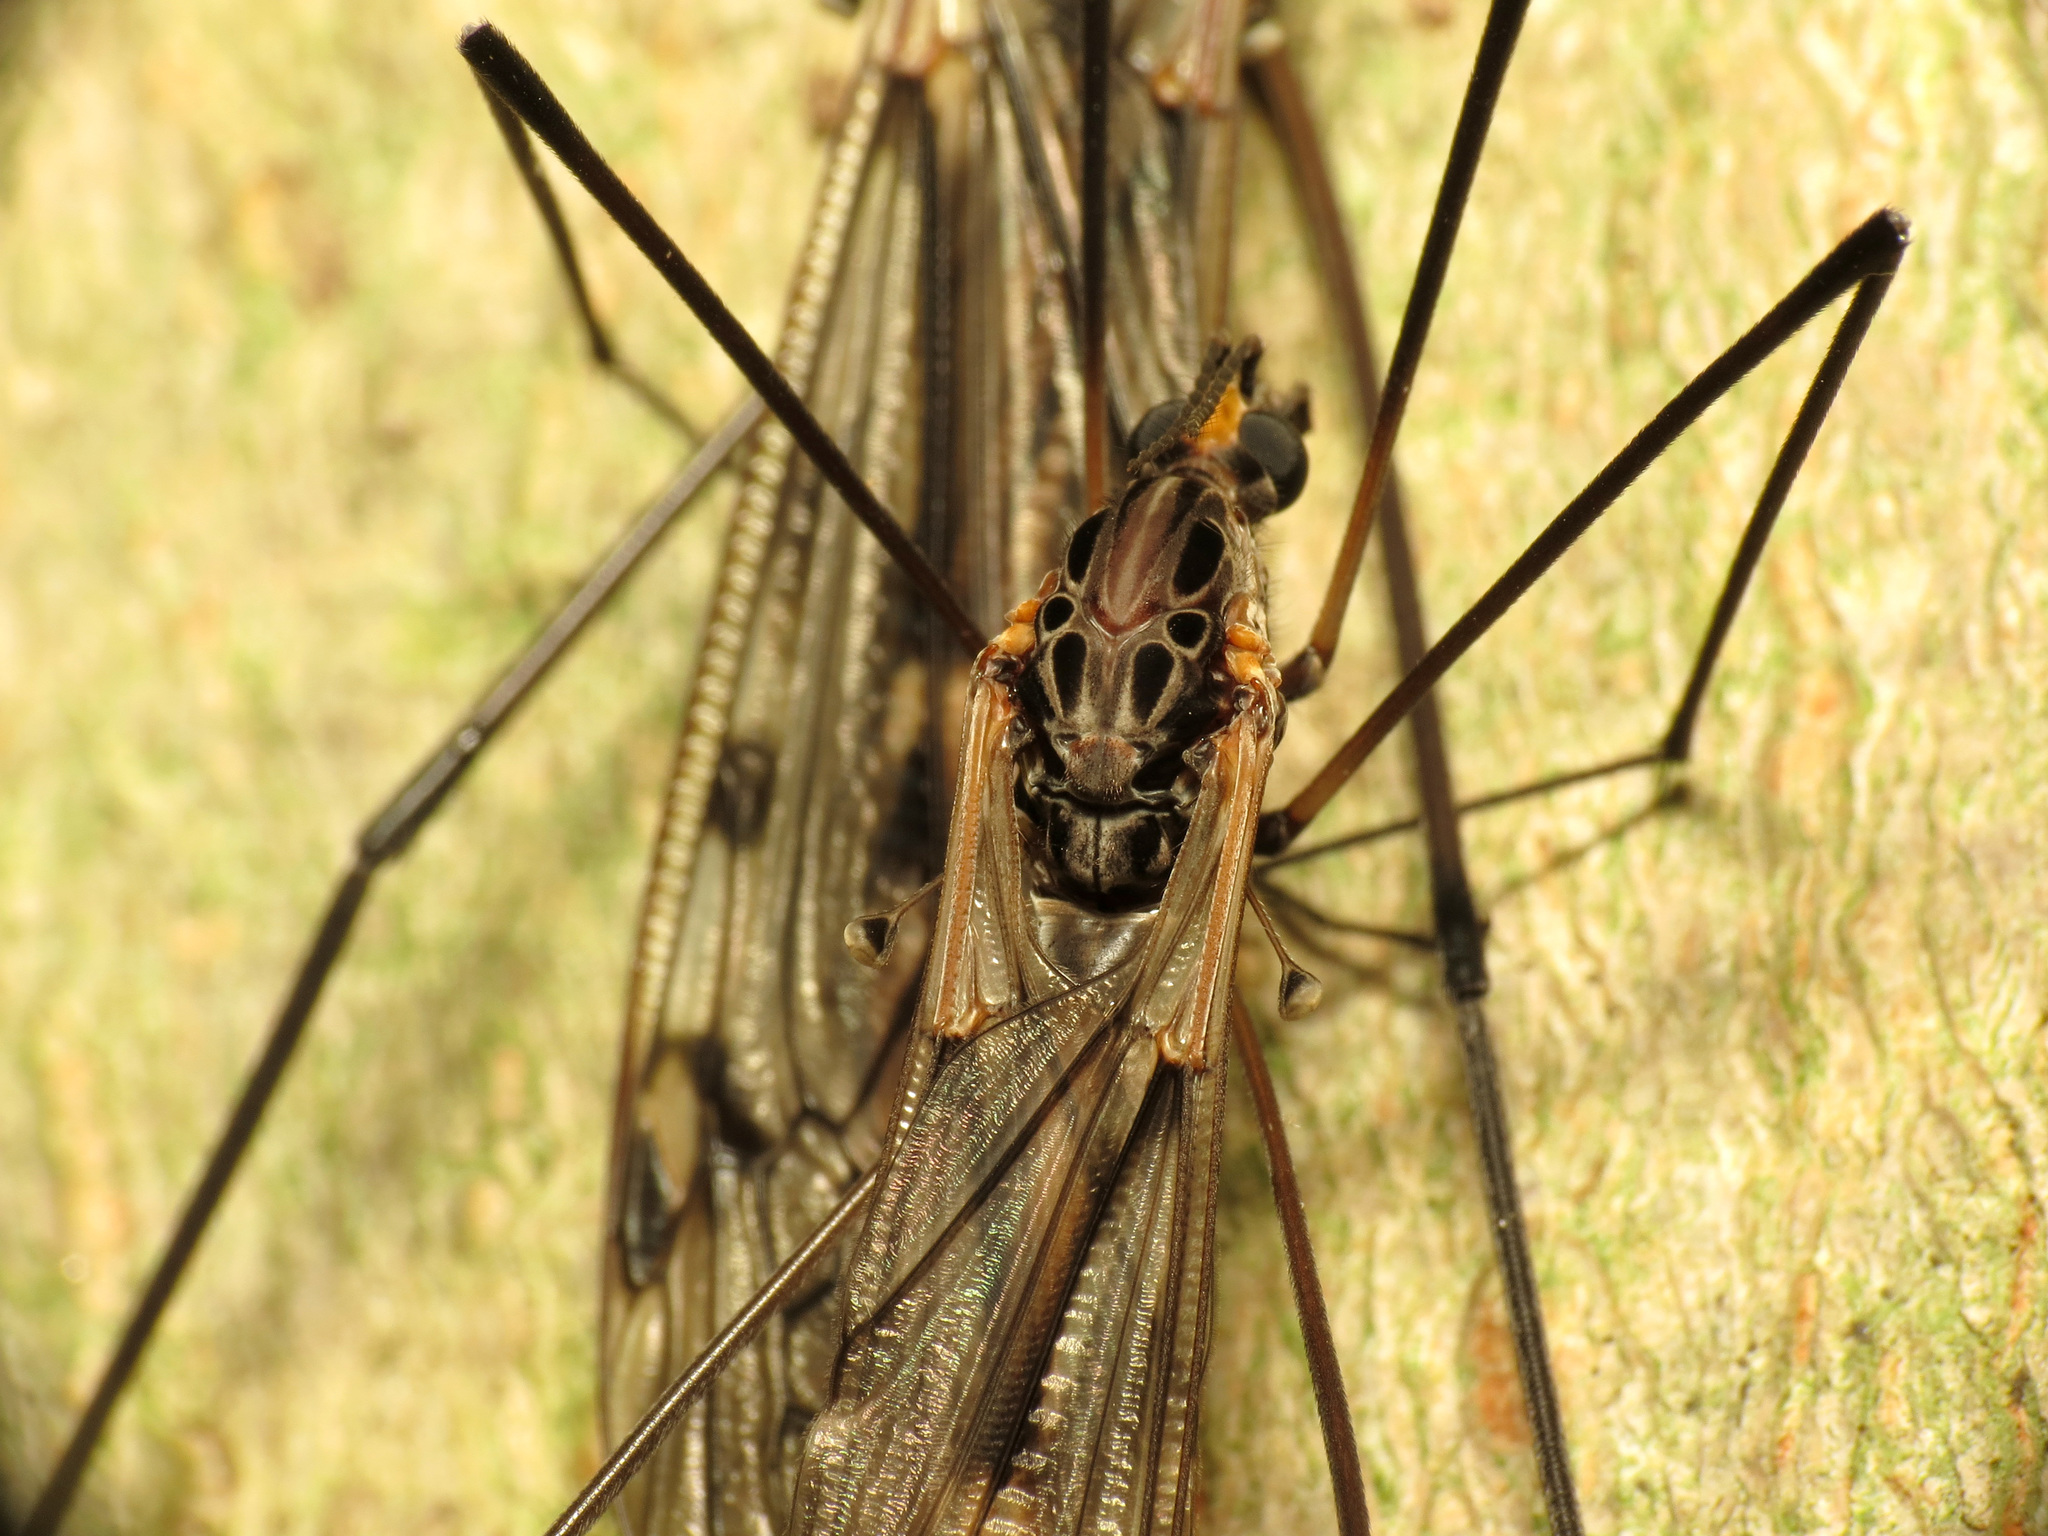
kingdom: Animalia
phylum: Arthropoda
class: Insecta
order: Diptera
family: Tipulidae
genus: Tipula
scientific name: Tipula metacomet
